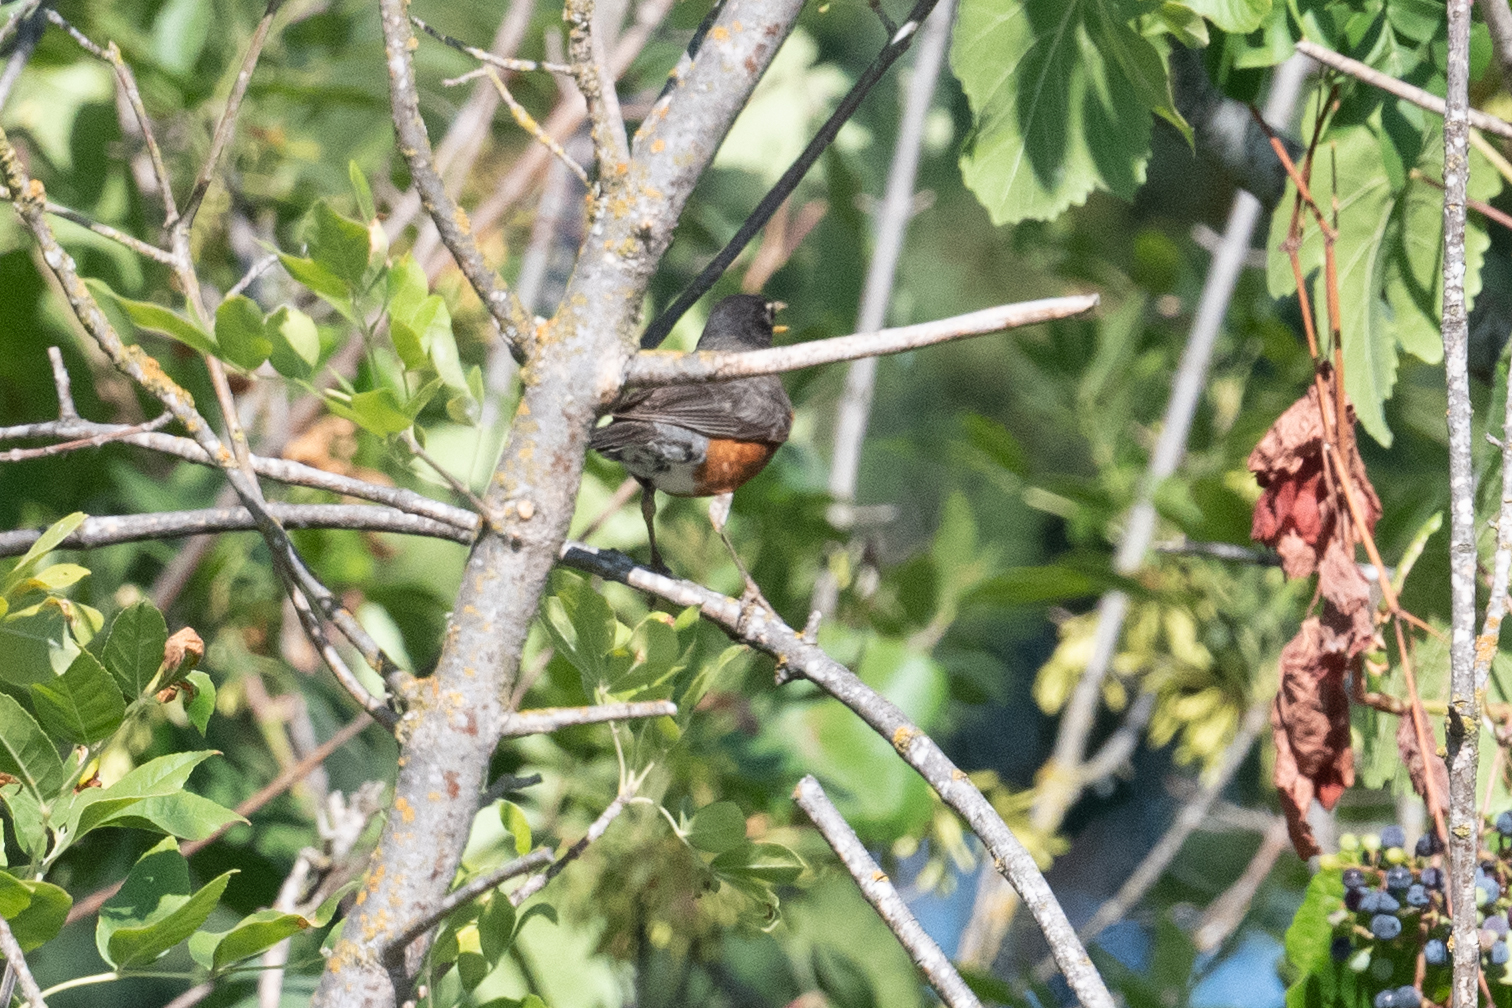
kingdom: Animalia
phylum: Chordata
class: Aves
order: Passeriformes
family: Turdidae
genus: Turdus
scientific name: Turdus migratorius
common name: American robin
